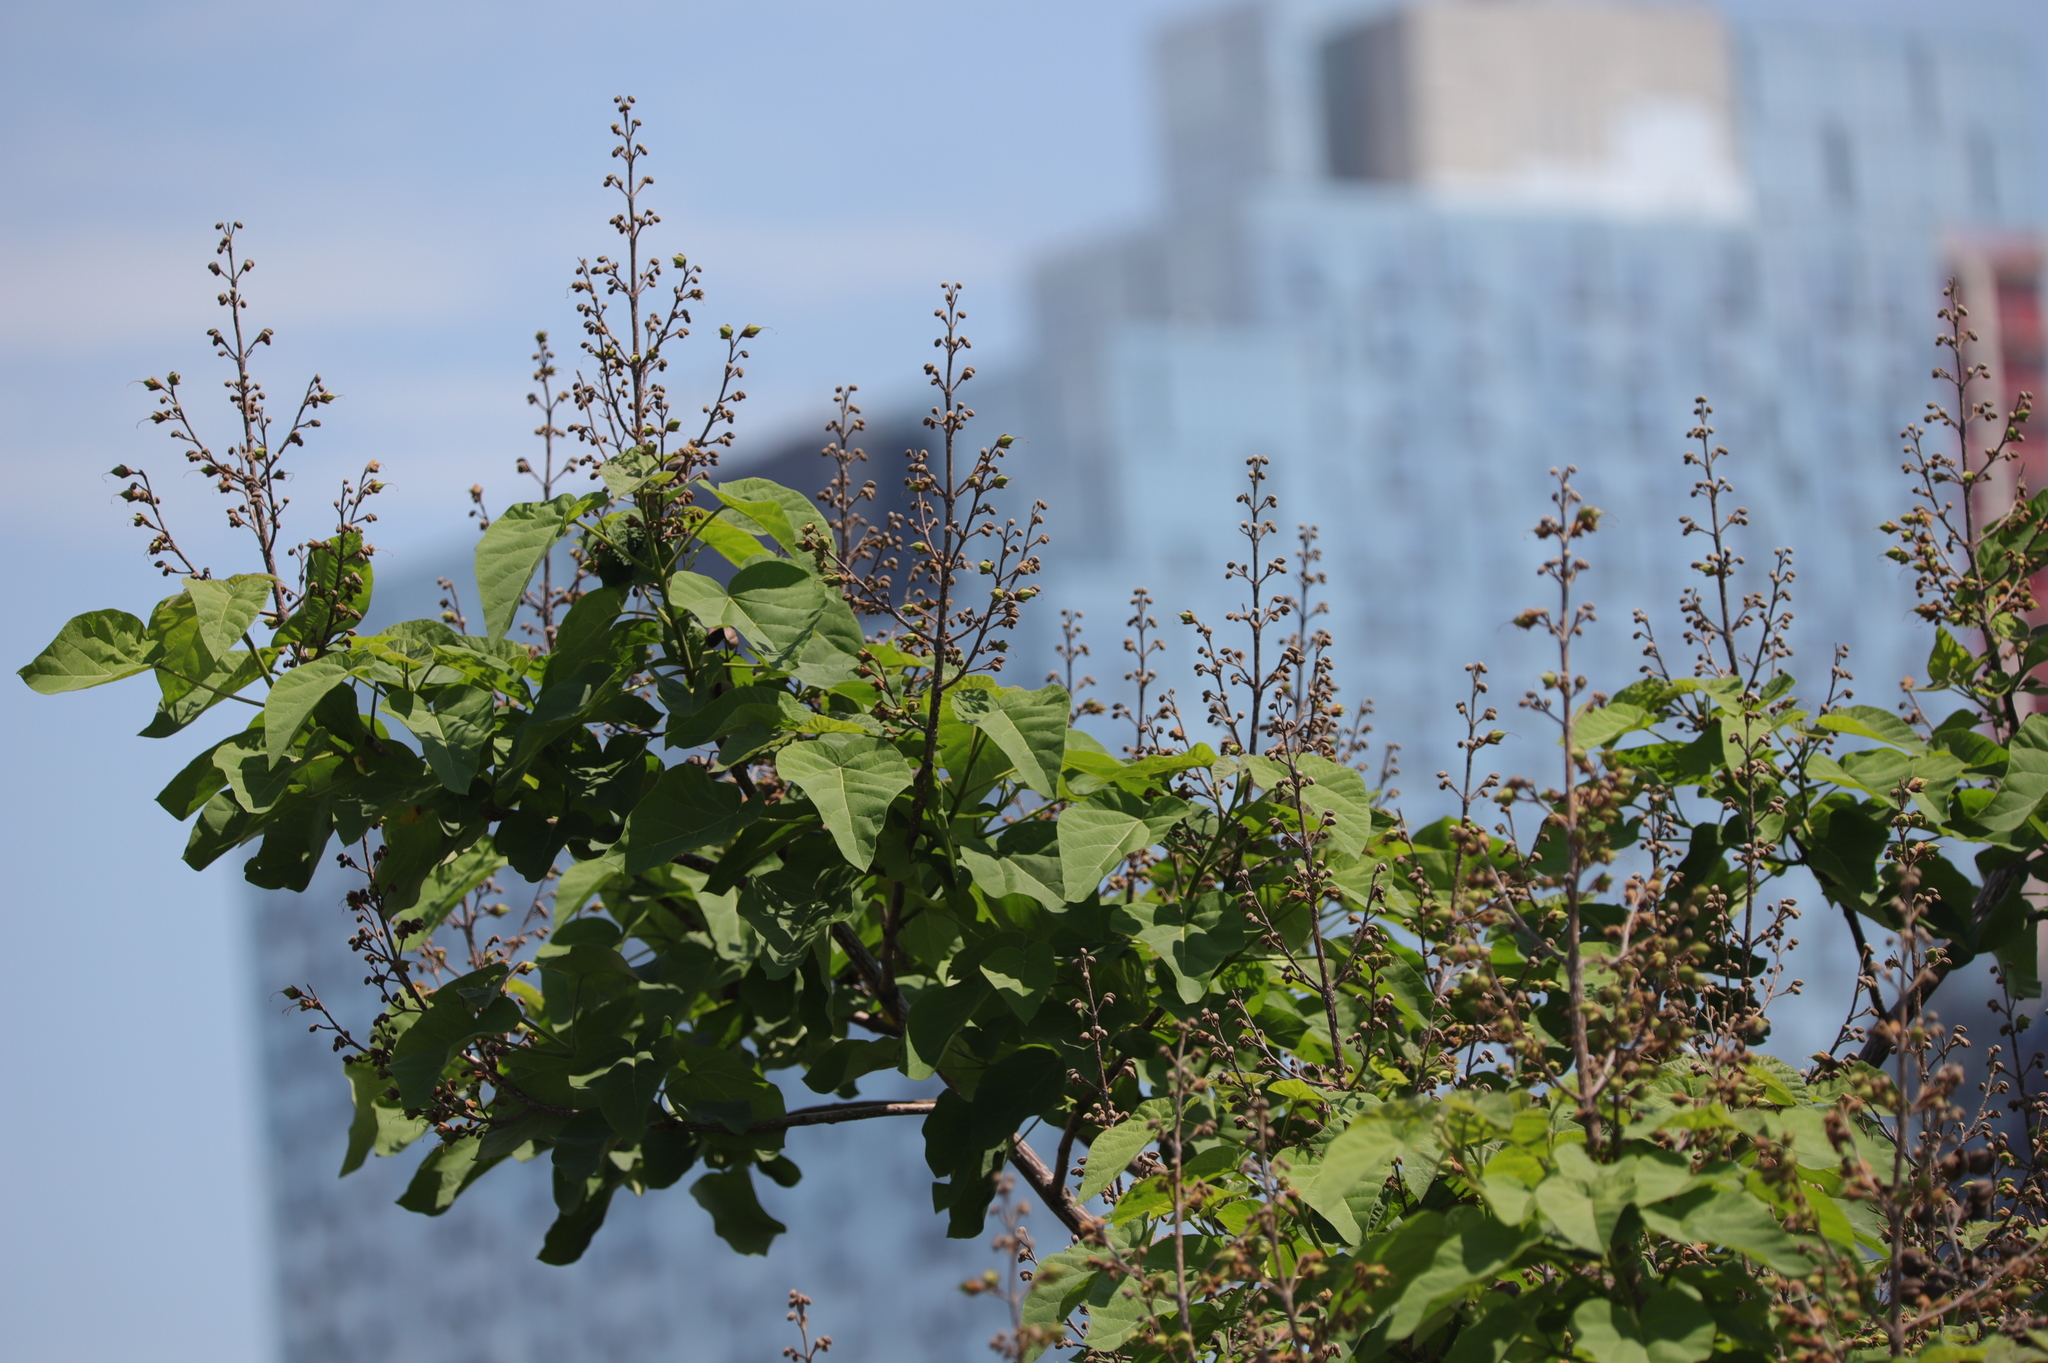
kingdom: Plantae
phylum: Tracheophyta
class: Magnoliopsida
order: Lamiales
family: Paulowniaceae
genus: Paulownia
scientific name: Paulownia tomentosa
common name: Foxglove-tree
